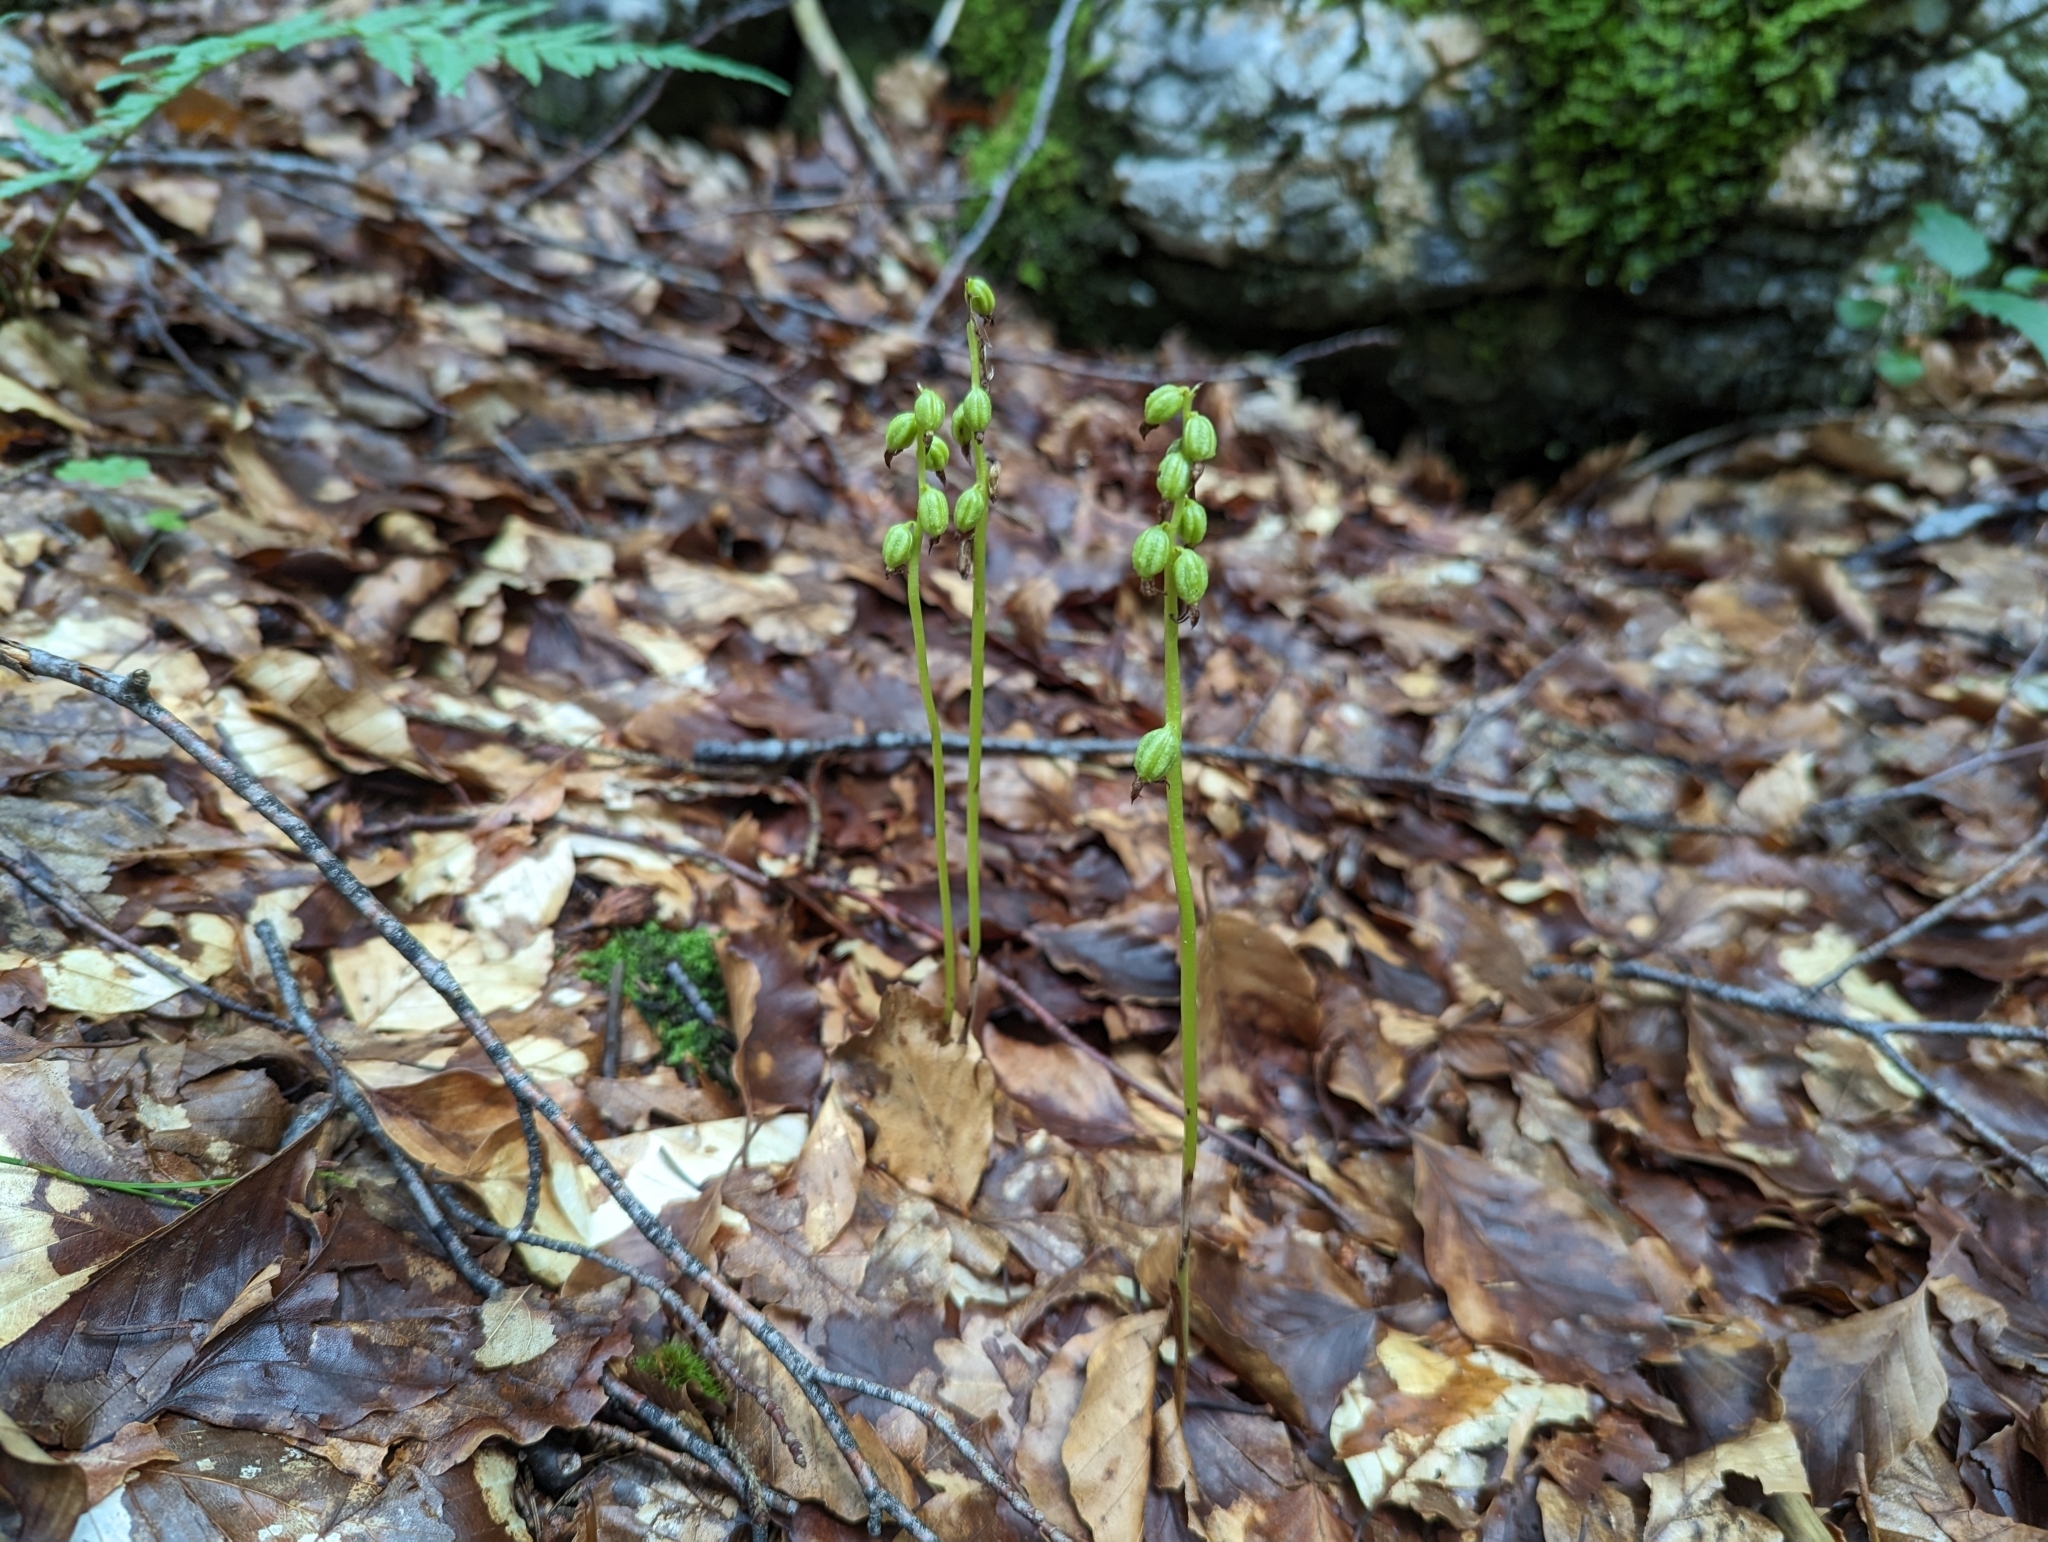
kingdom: Plantae
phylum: Tracheophyta
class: Liliopsida
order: Asparagales
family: Orchidaceae
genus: Corallorhiza
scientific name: Corallorhiza trifida
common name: Yellow coralroot
